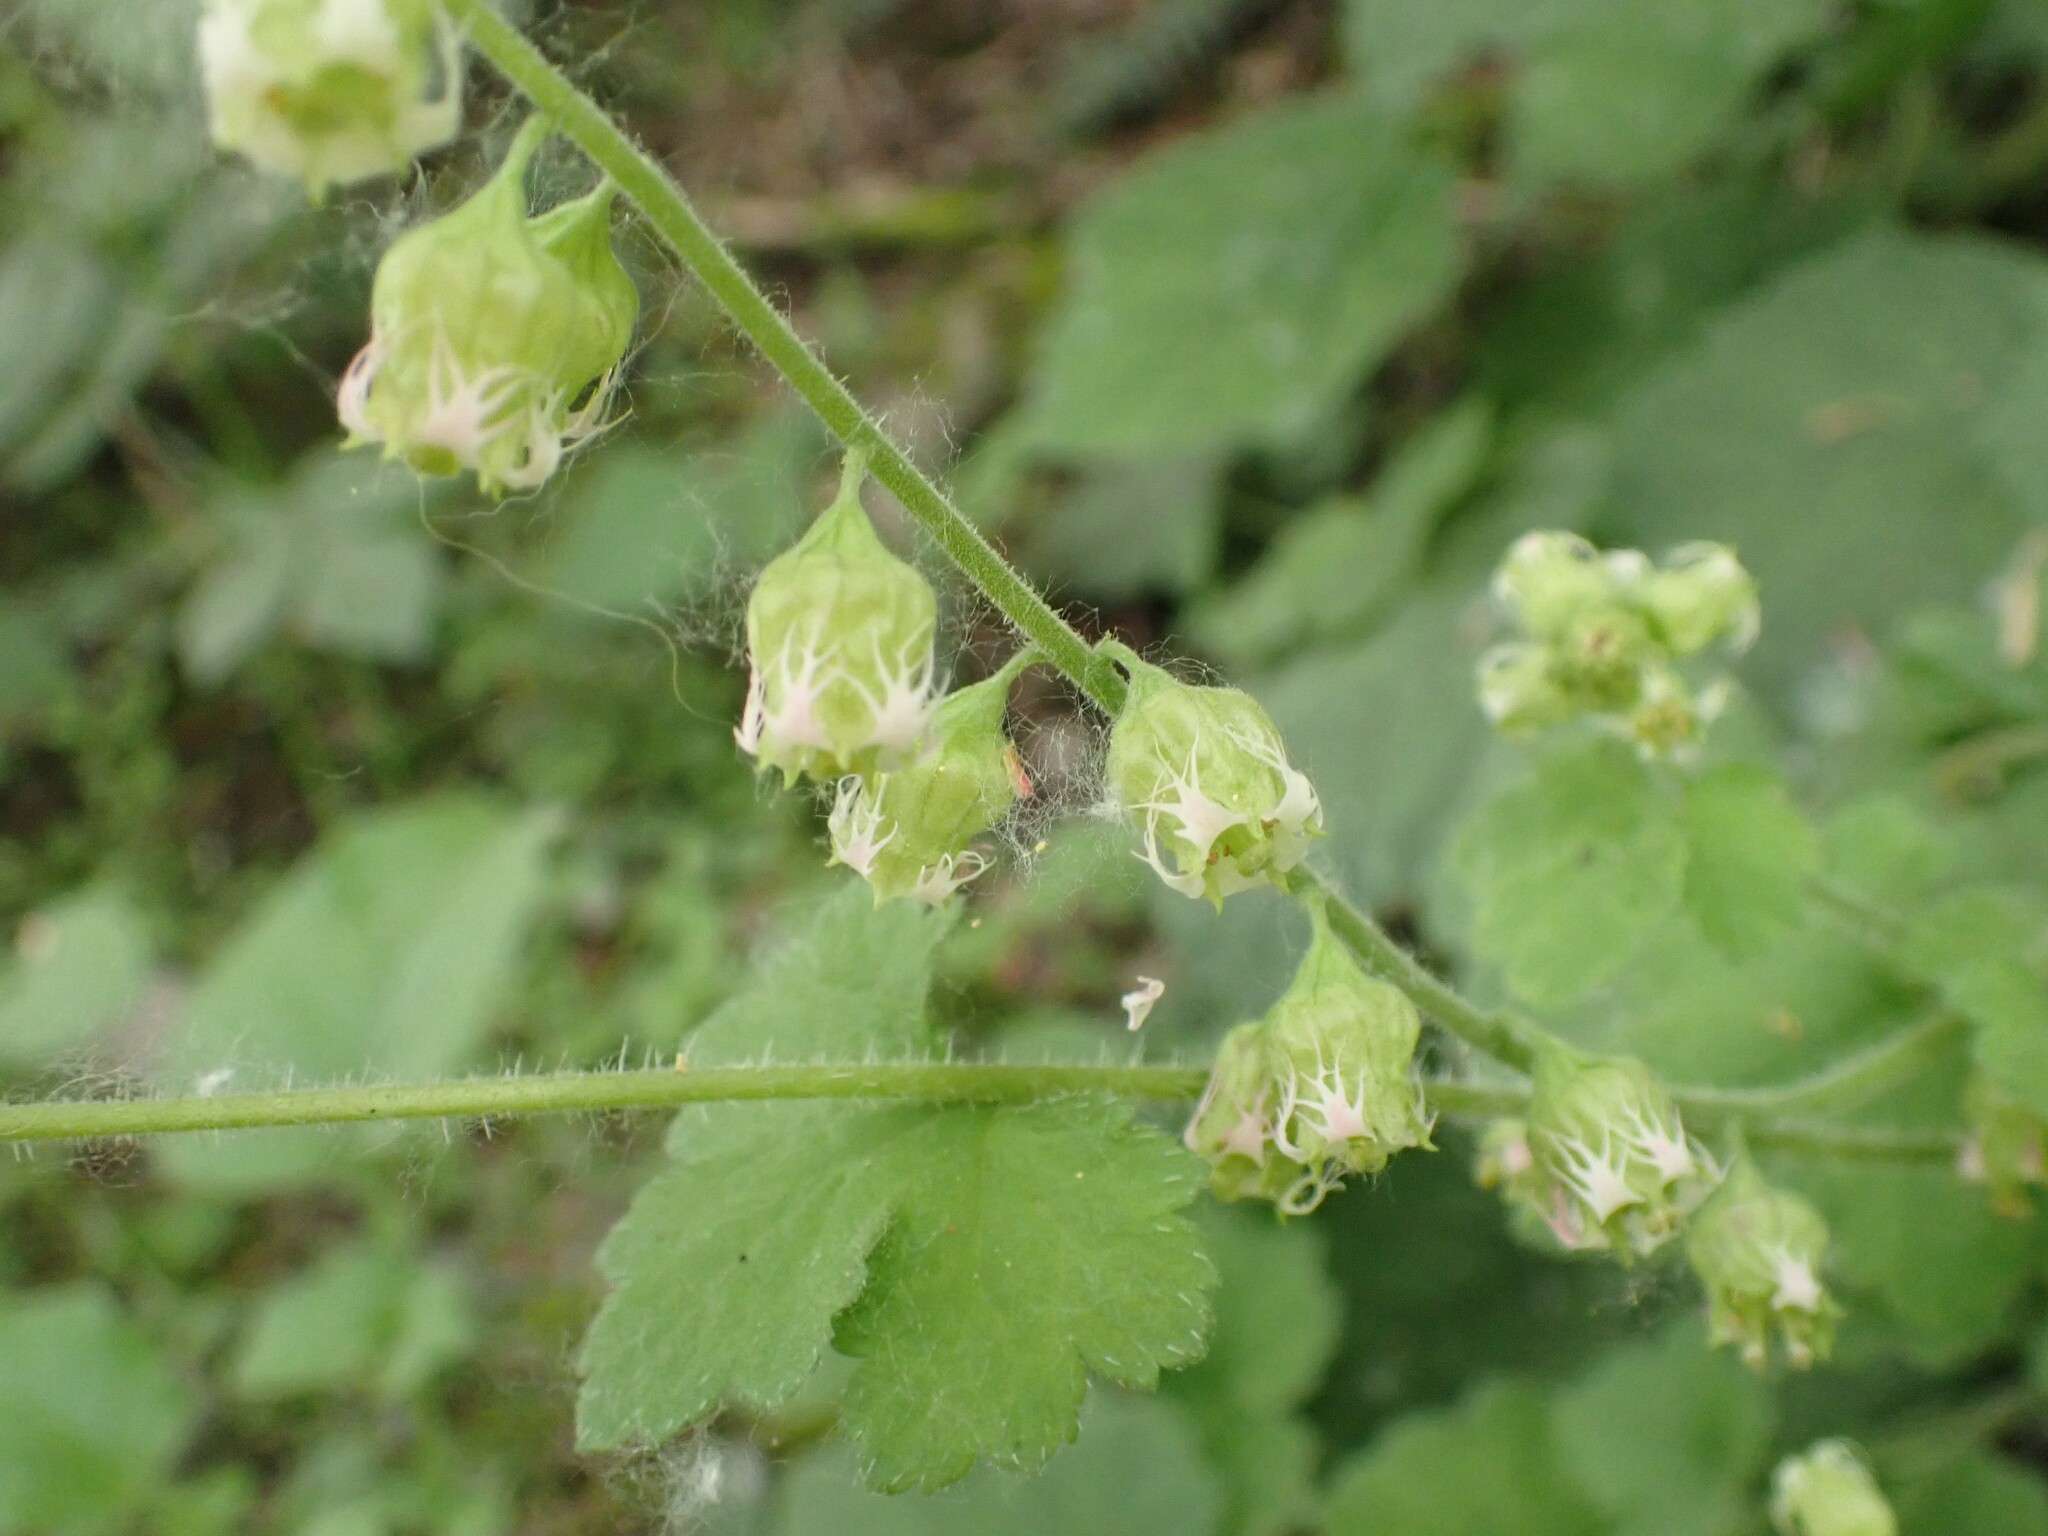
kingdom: Plantae
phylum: Tracheophyta
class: Magnoliopsida
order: Saxifragales
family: Saxifragaceae
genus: Tellima
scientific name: Tellima grandiflora
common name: Fringecups
